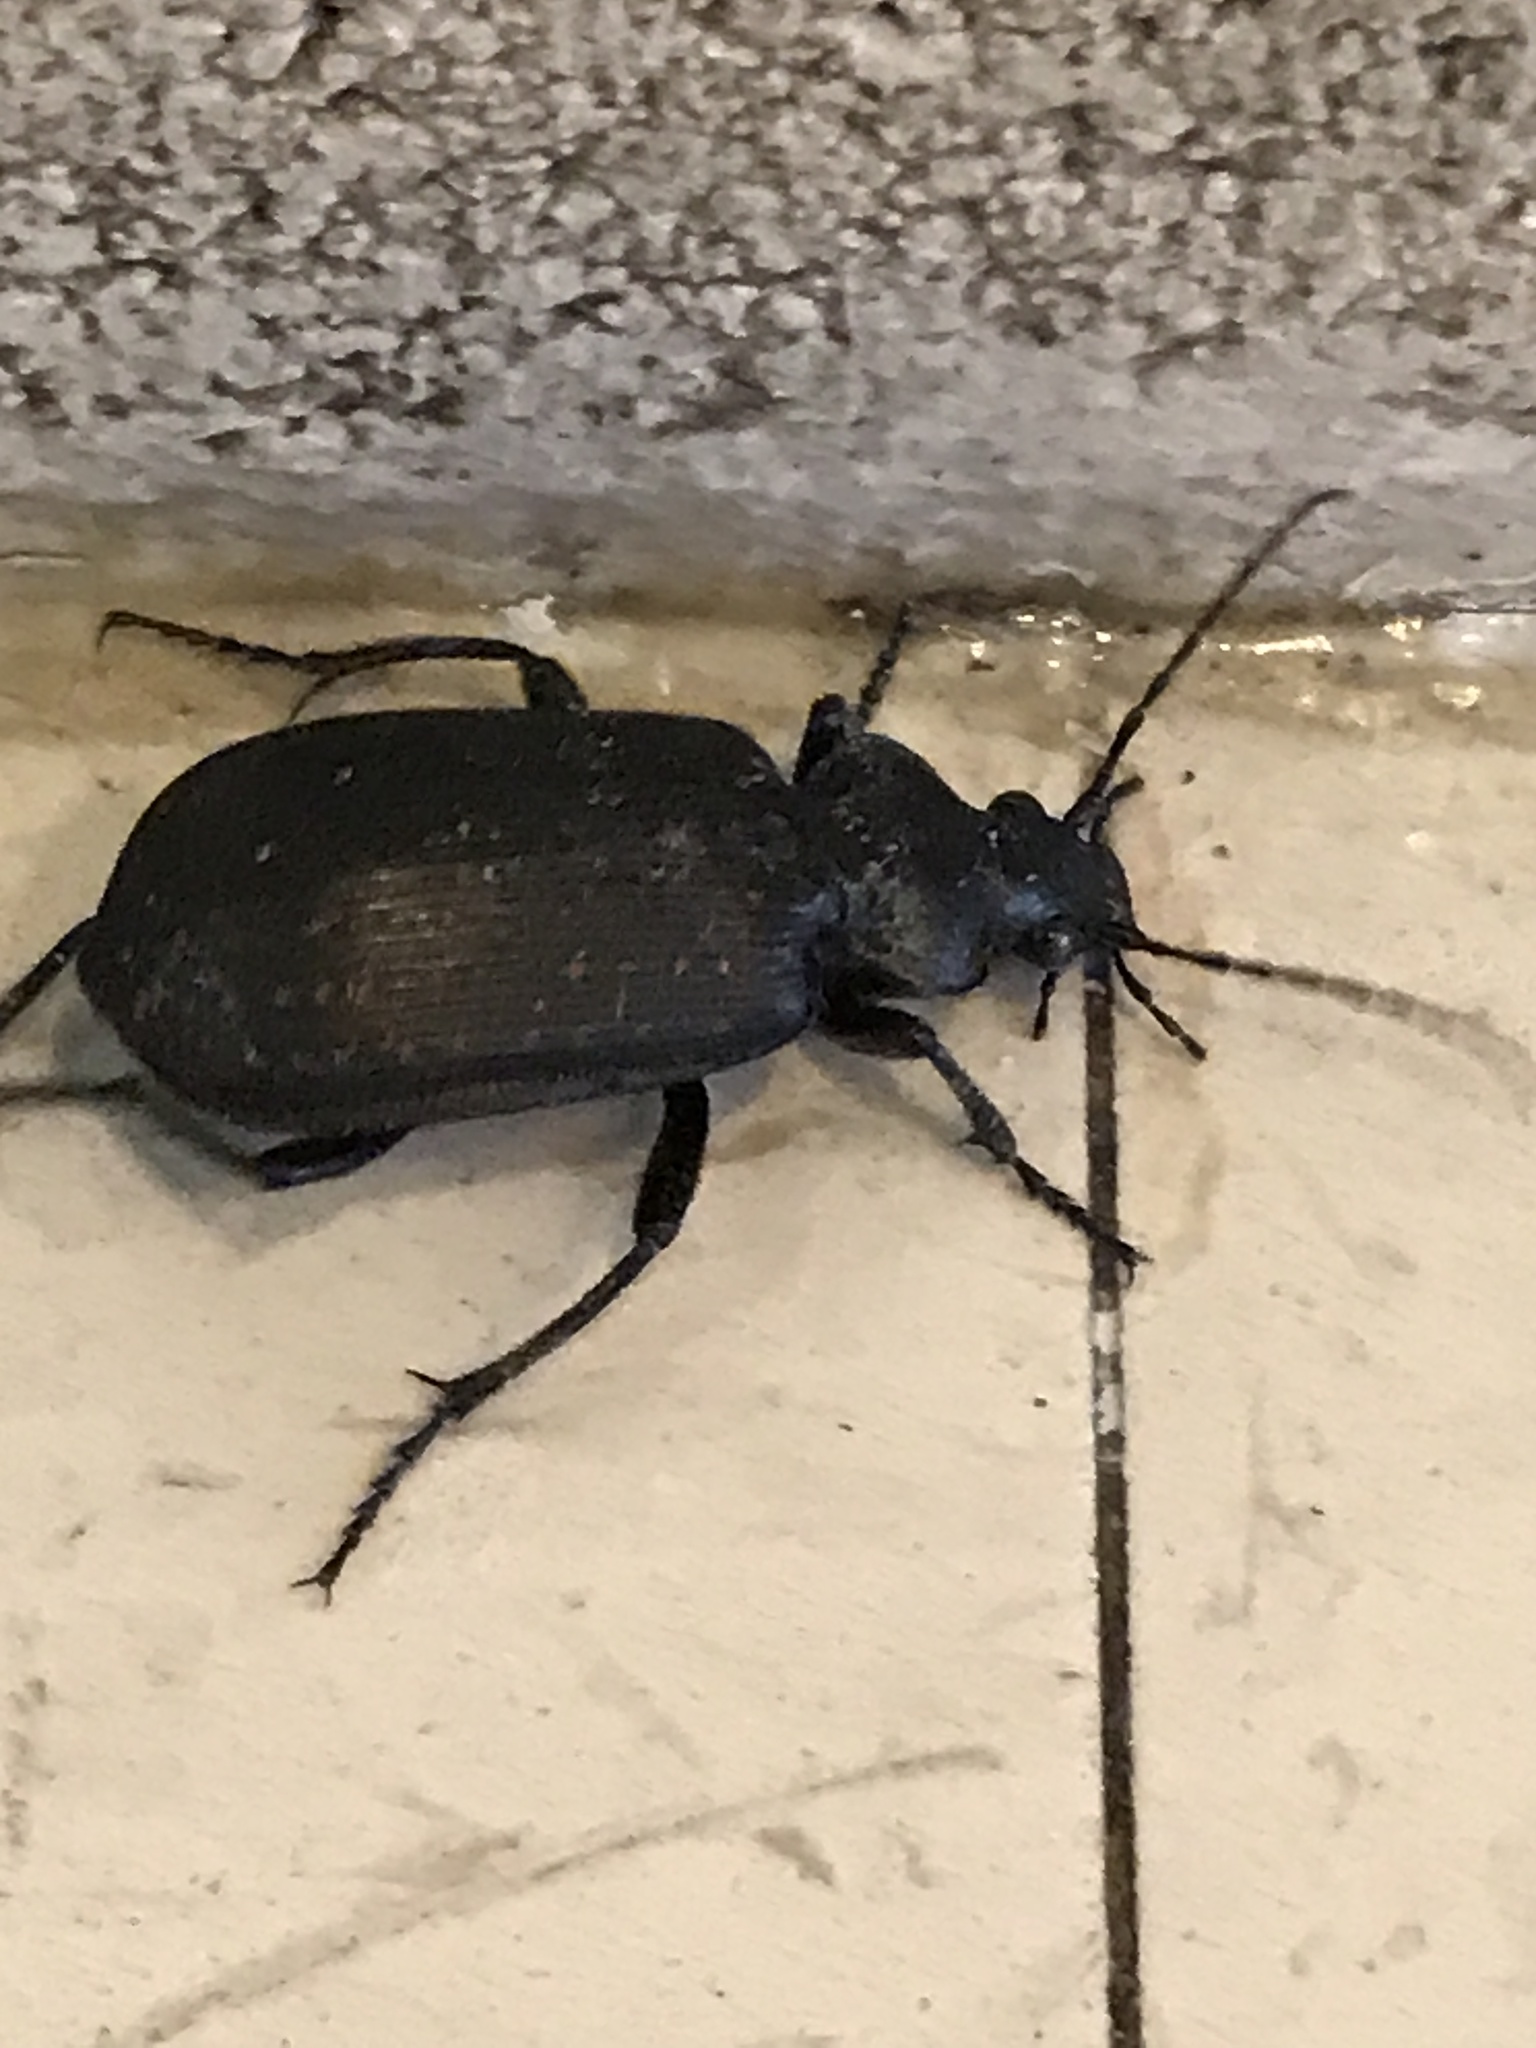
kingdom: Animalia
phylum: Arthropoda
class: Insecta
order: Coleoptera
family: Carabidae
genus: Calosoma
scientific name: Calosoma sayi
